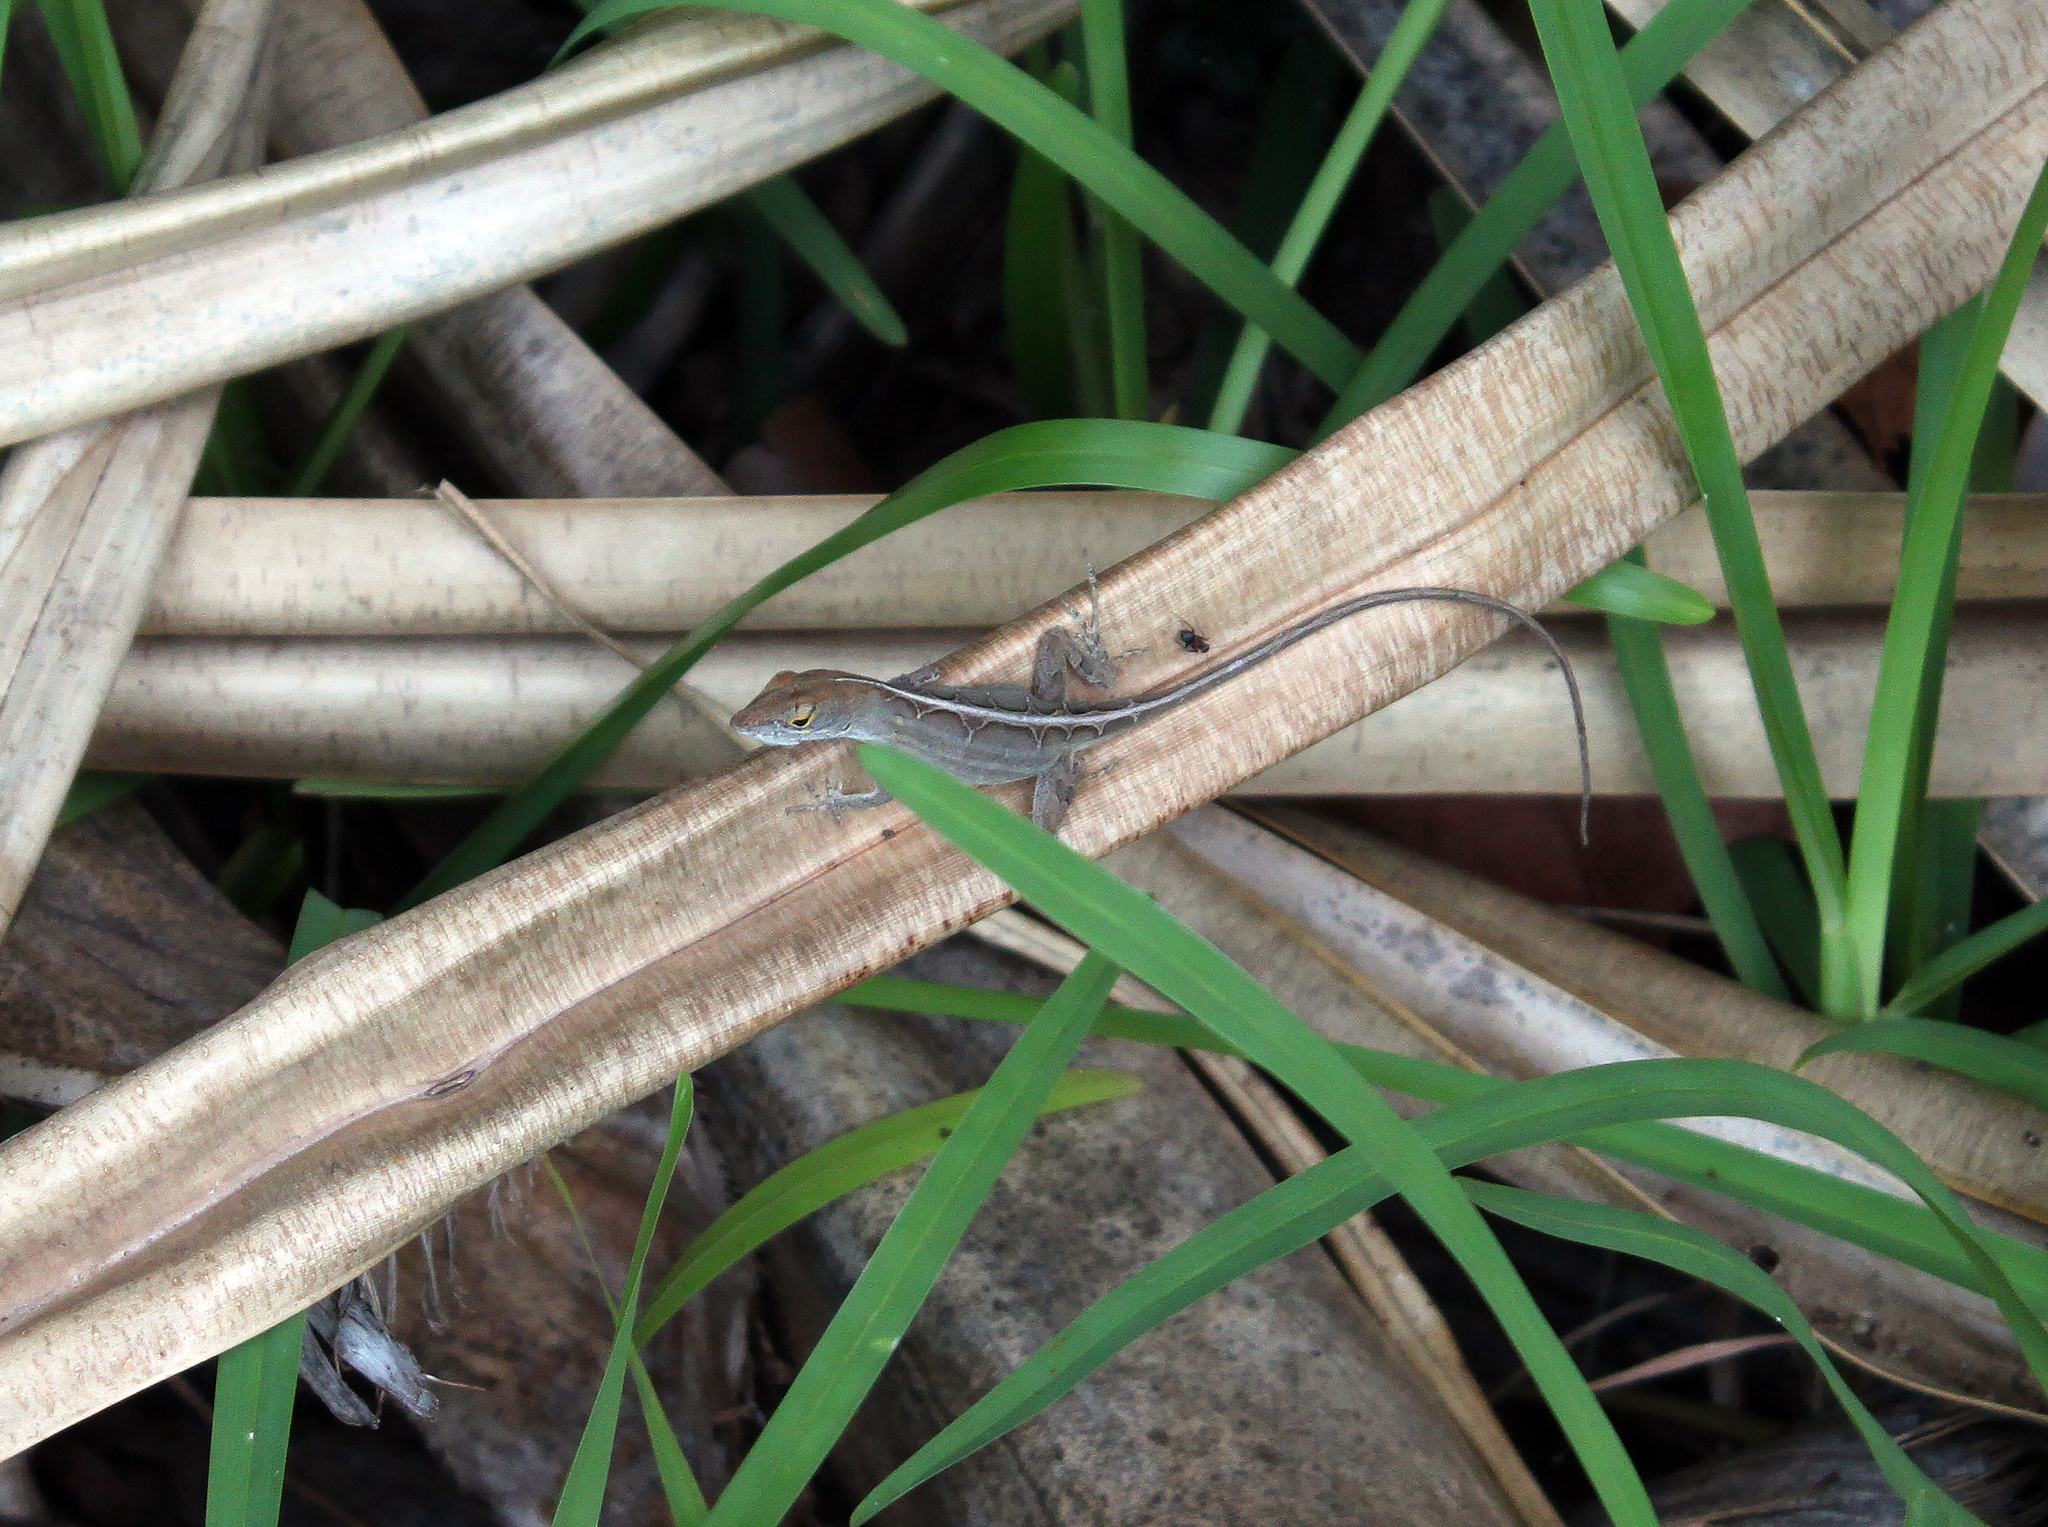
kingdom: Animalia
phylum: Chordata
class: Squamata
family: Dactyloidae
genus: Anolis
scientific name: Anolis sagrei
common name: Brown anole
